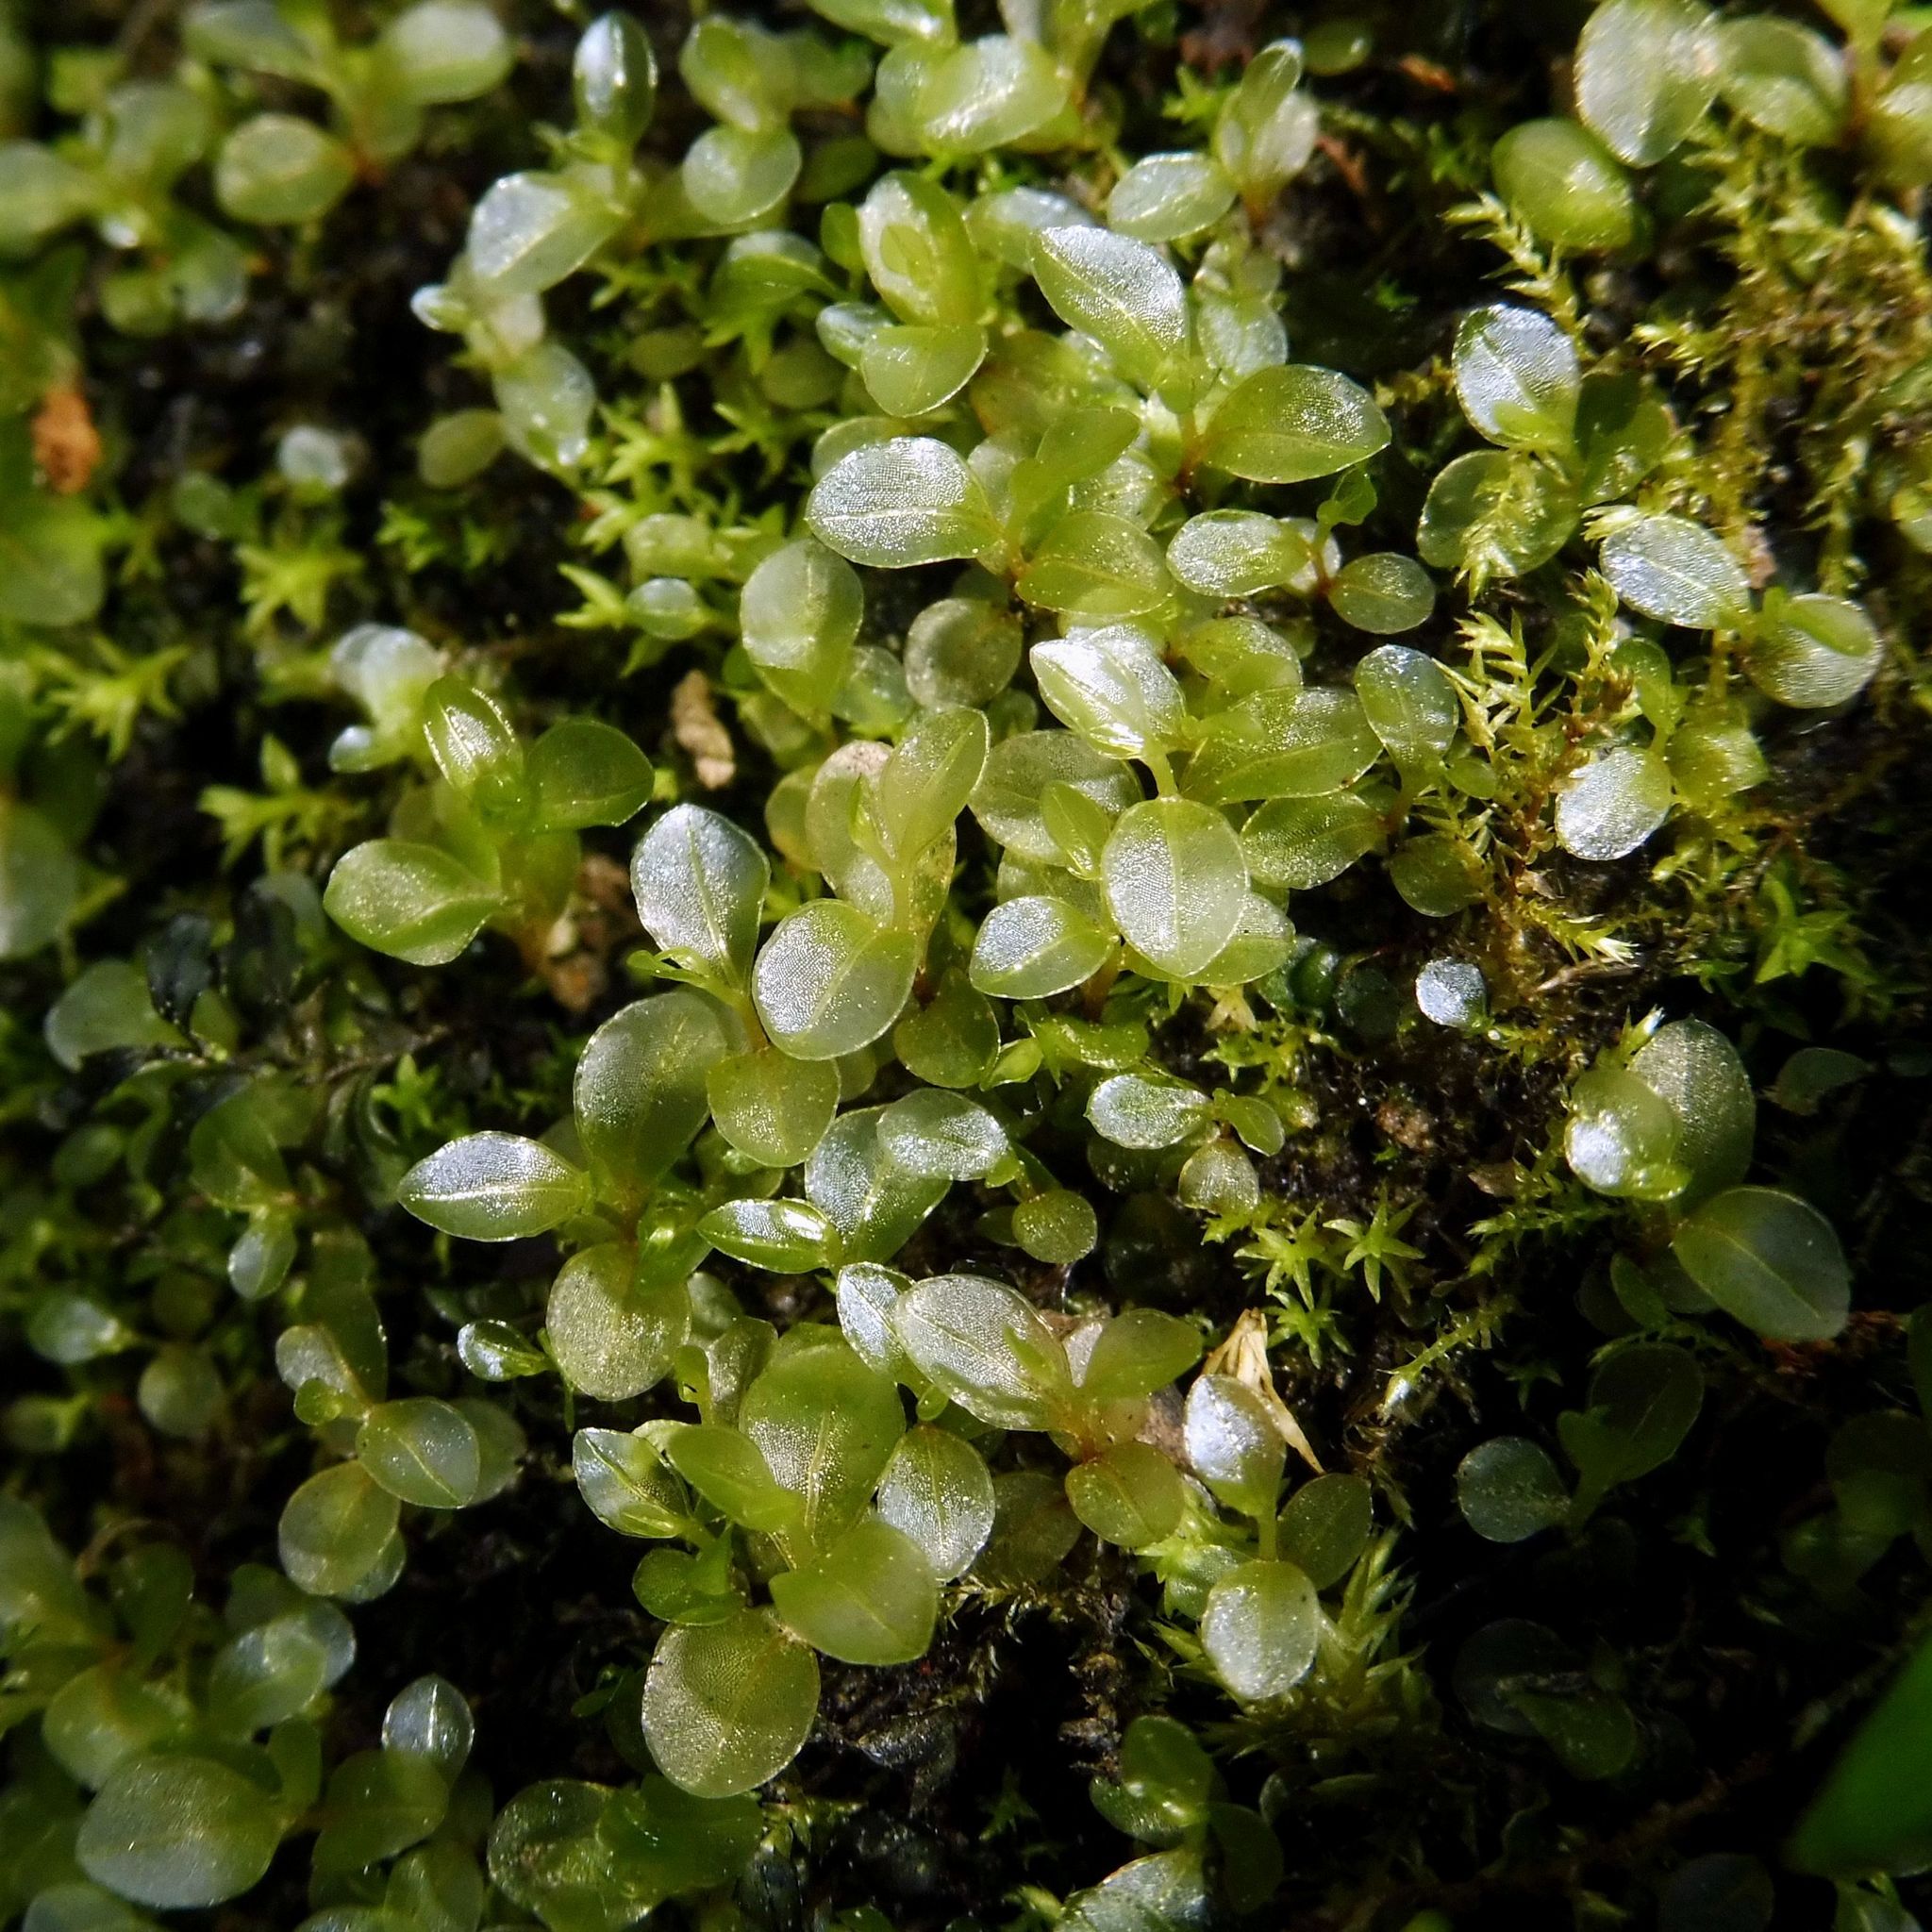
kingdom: Plantae
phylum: Bryophyta
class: Bryopsida
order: Bryales
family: Mniaceae
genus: Rhizomnium
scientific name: Rhizomnium punctatum
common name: Dotted leafy moss
